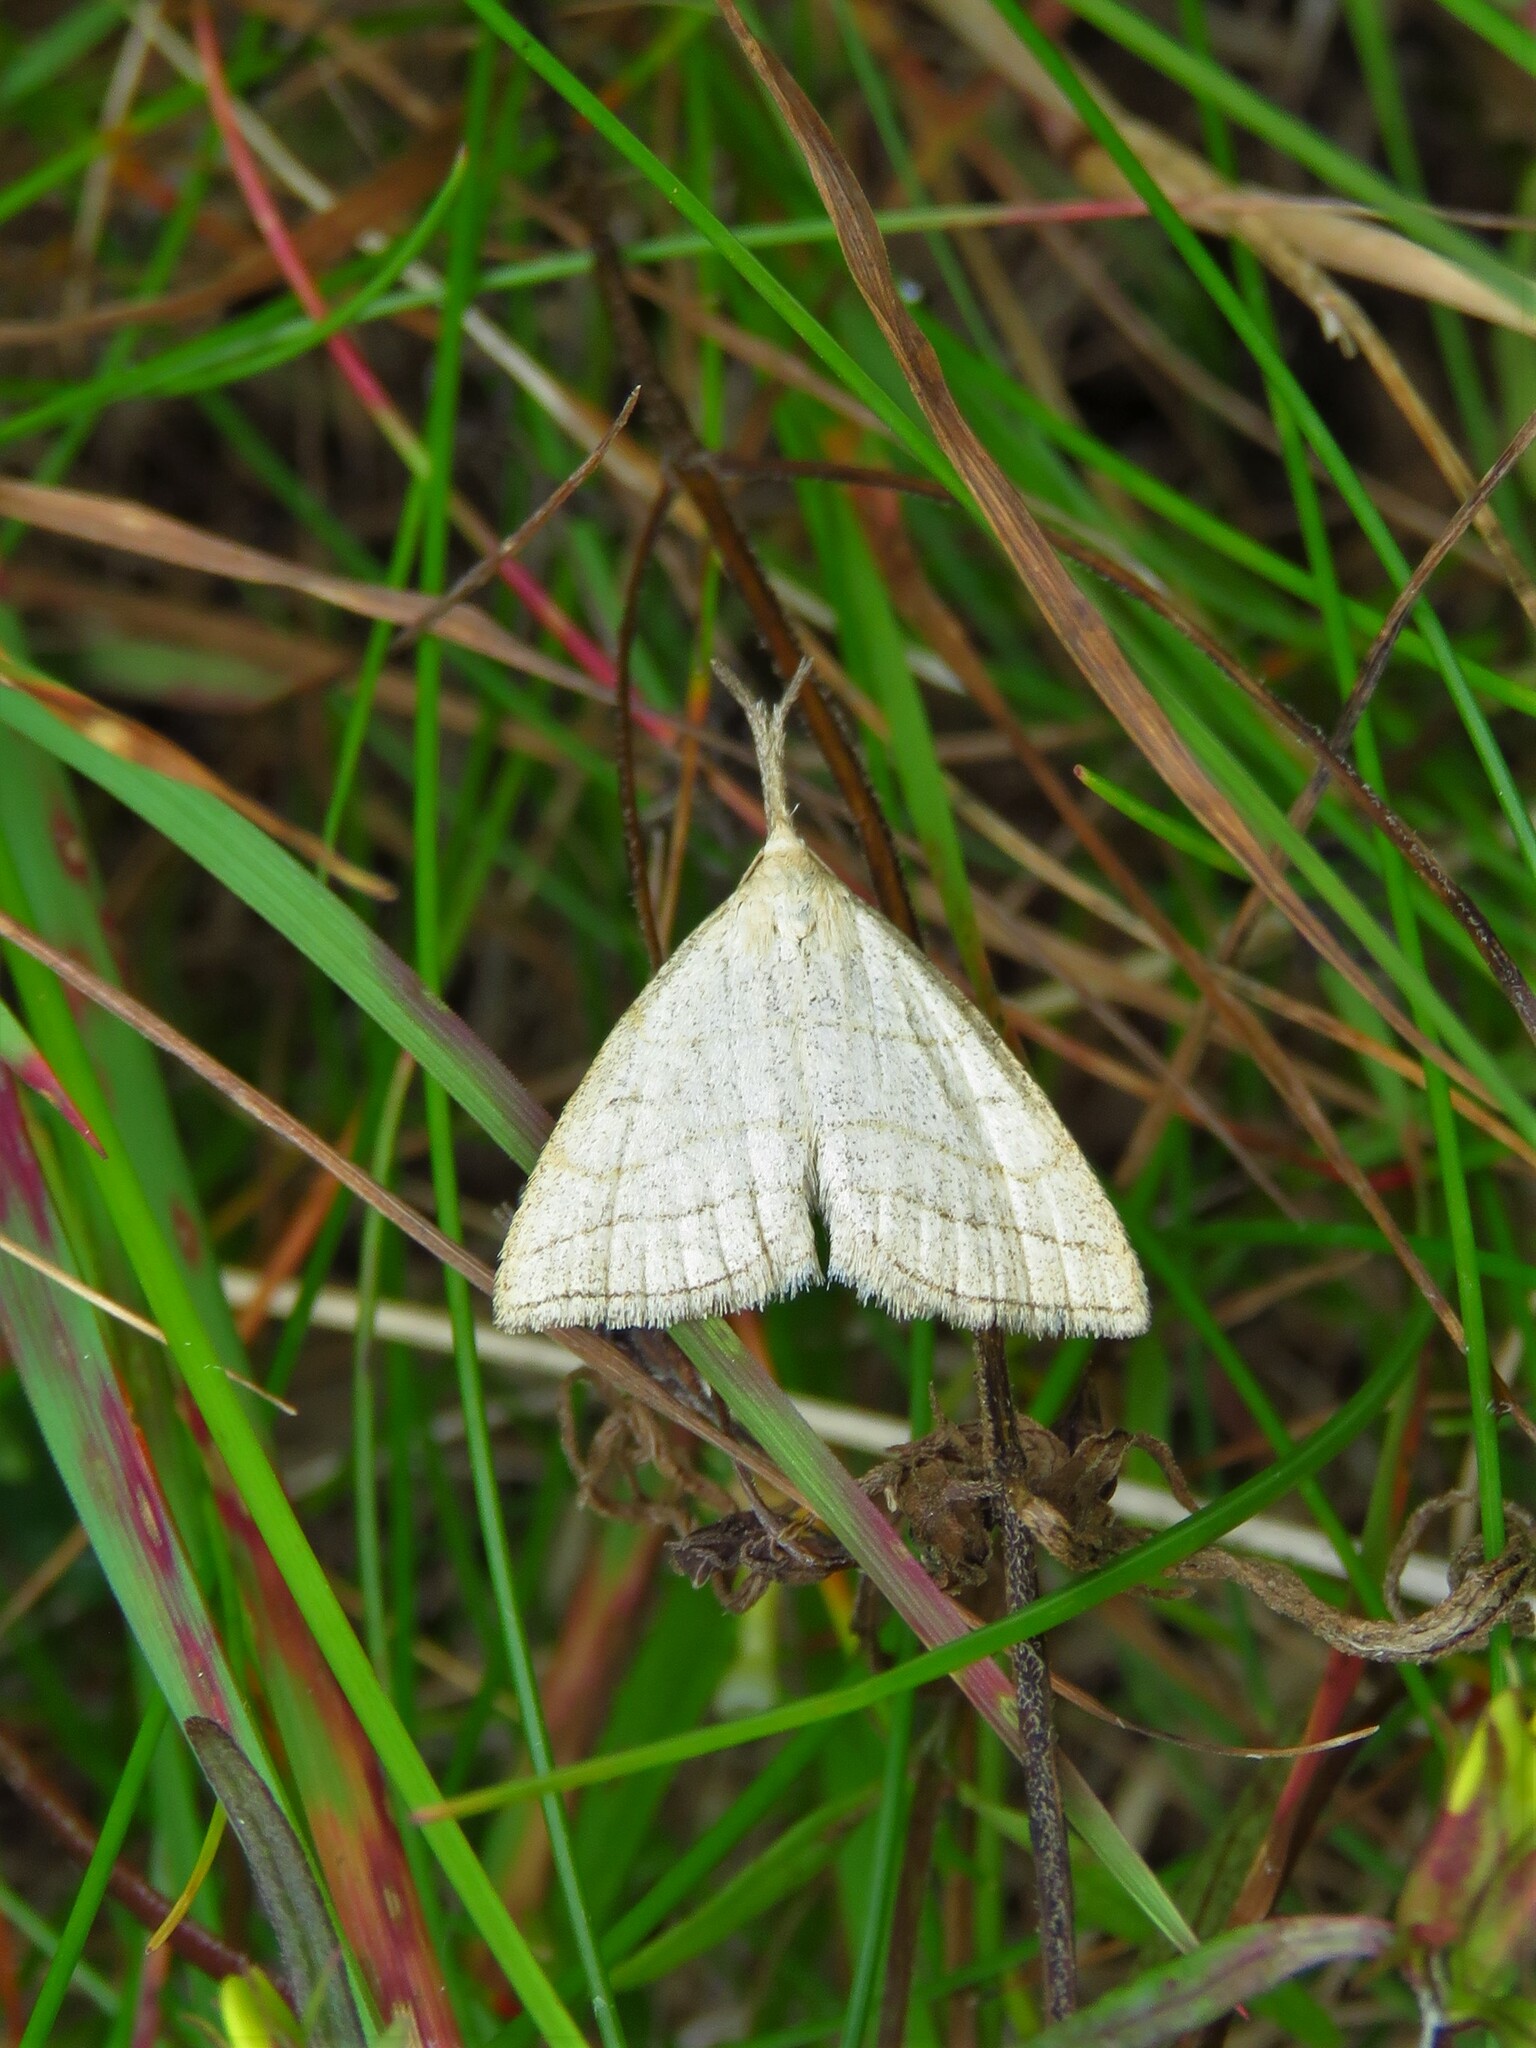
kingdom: Animalia
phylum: Arthropoda
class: Insecta
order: Lepidoptera
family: Erebidae
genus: Polypogon
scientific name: Polypogon tentacularia
